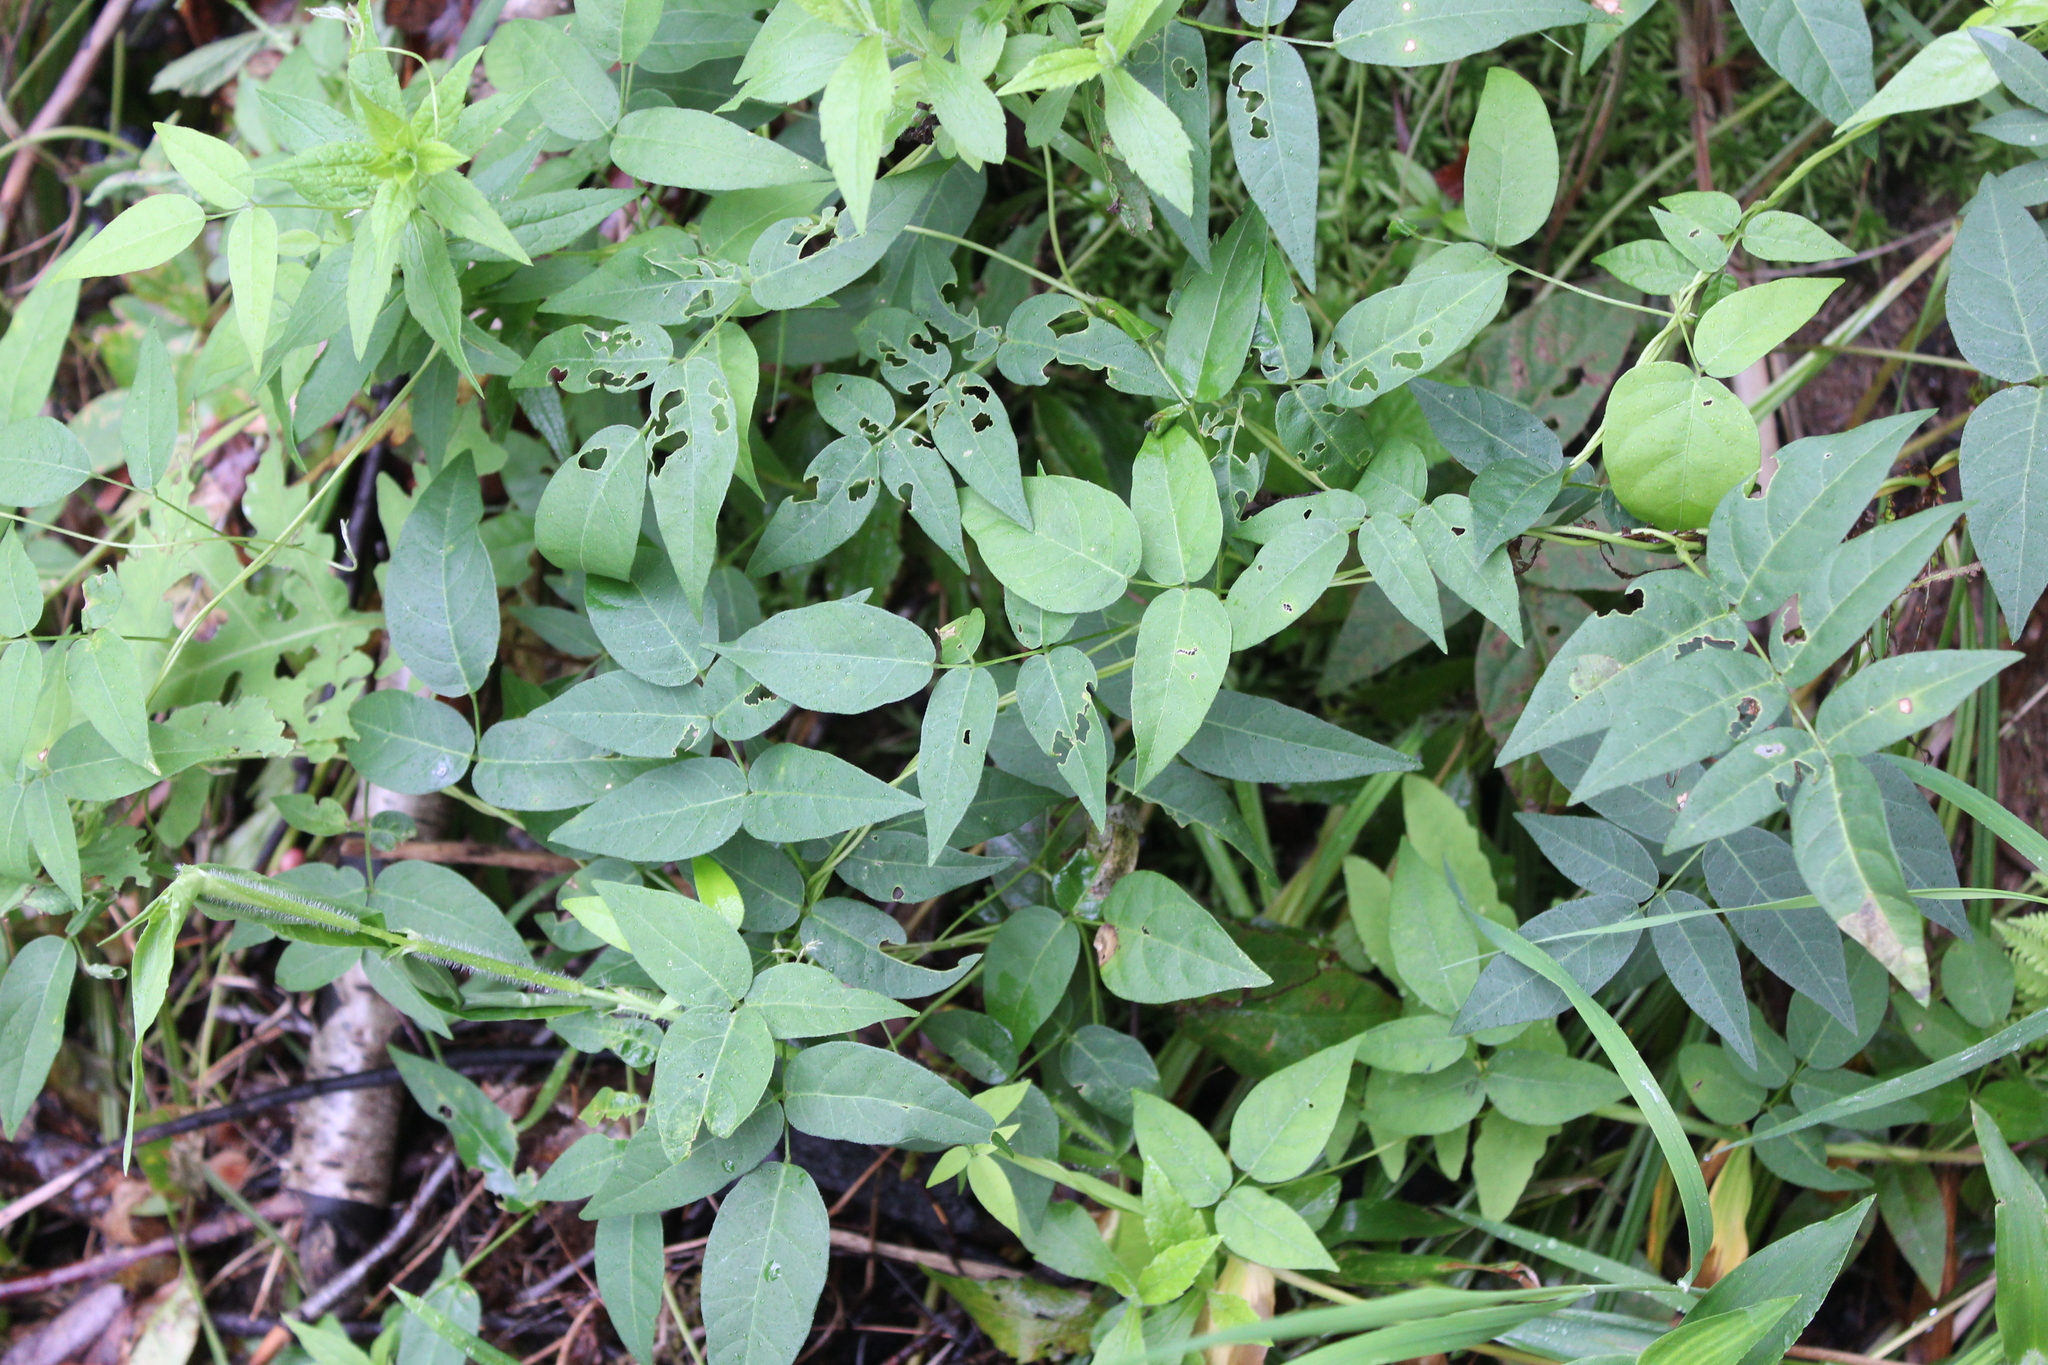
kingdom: Plantae
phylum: Tracheophyta
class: Magnoliopsida
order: Fabales
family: Fabaceae
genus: Apios
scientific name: Apios americana
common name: American potato-bean
